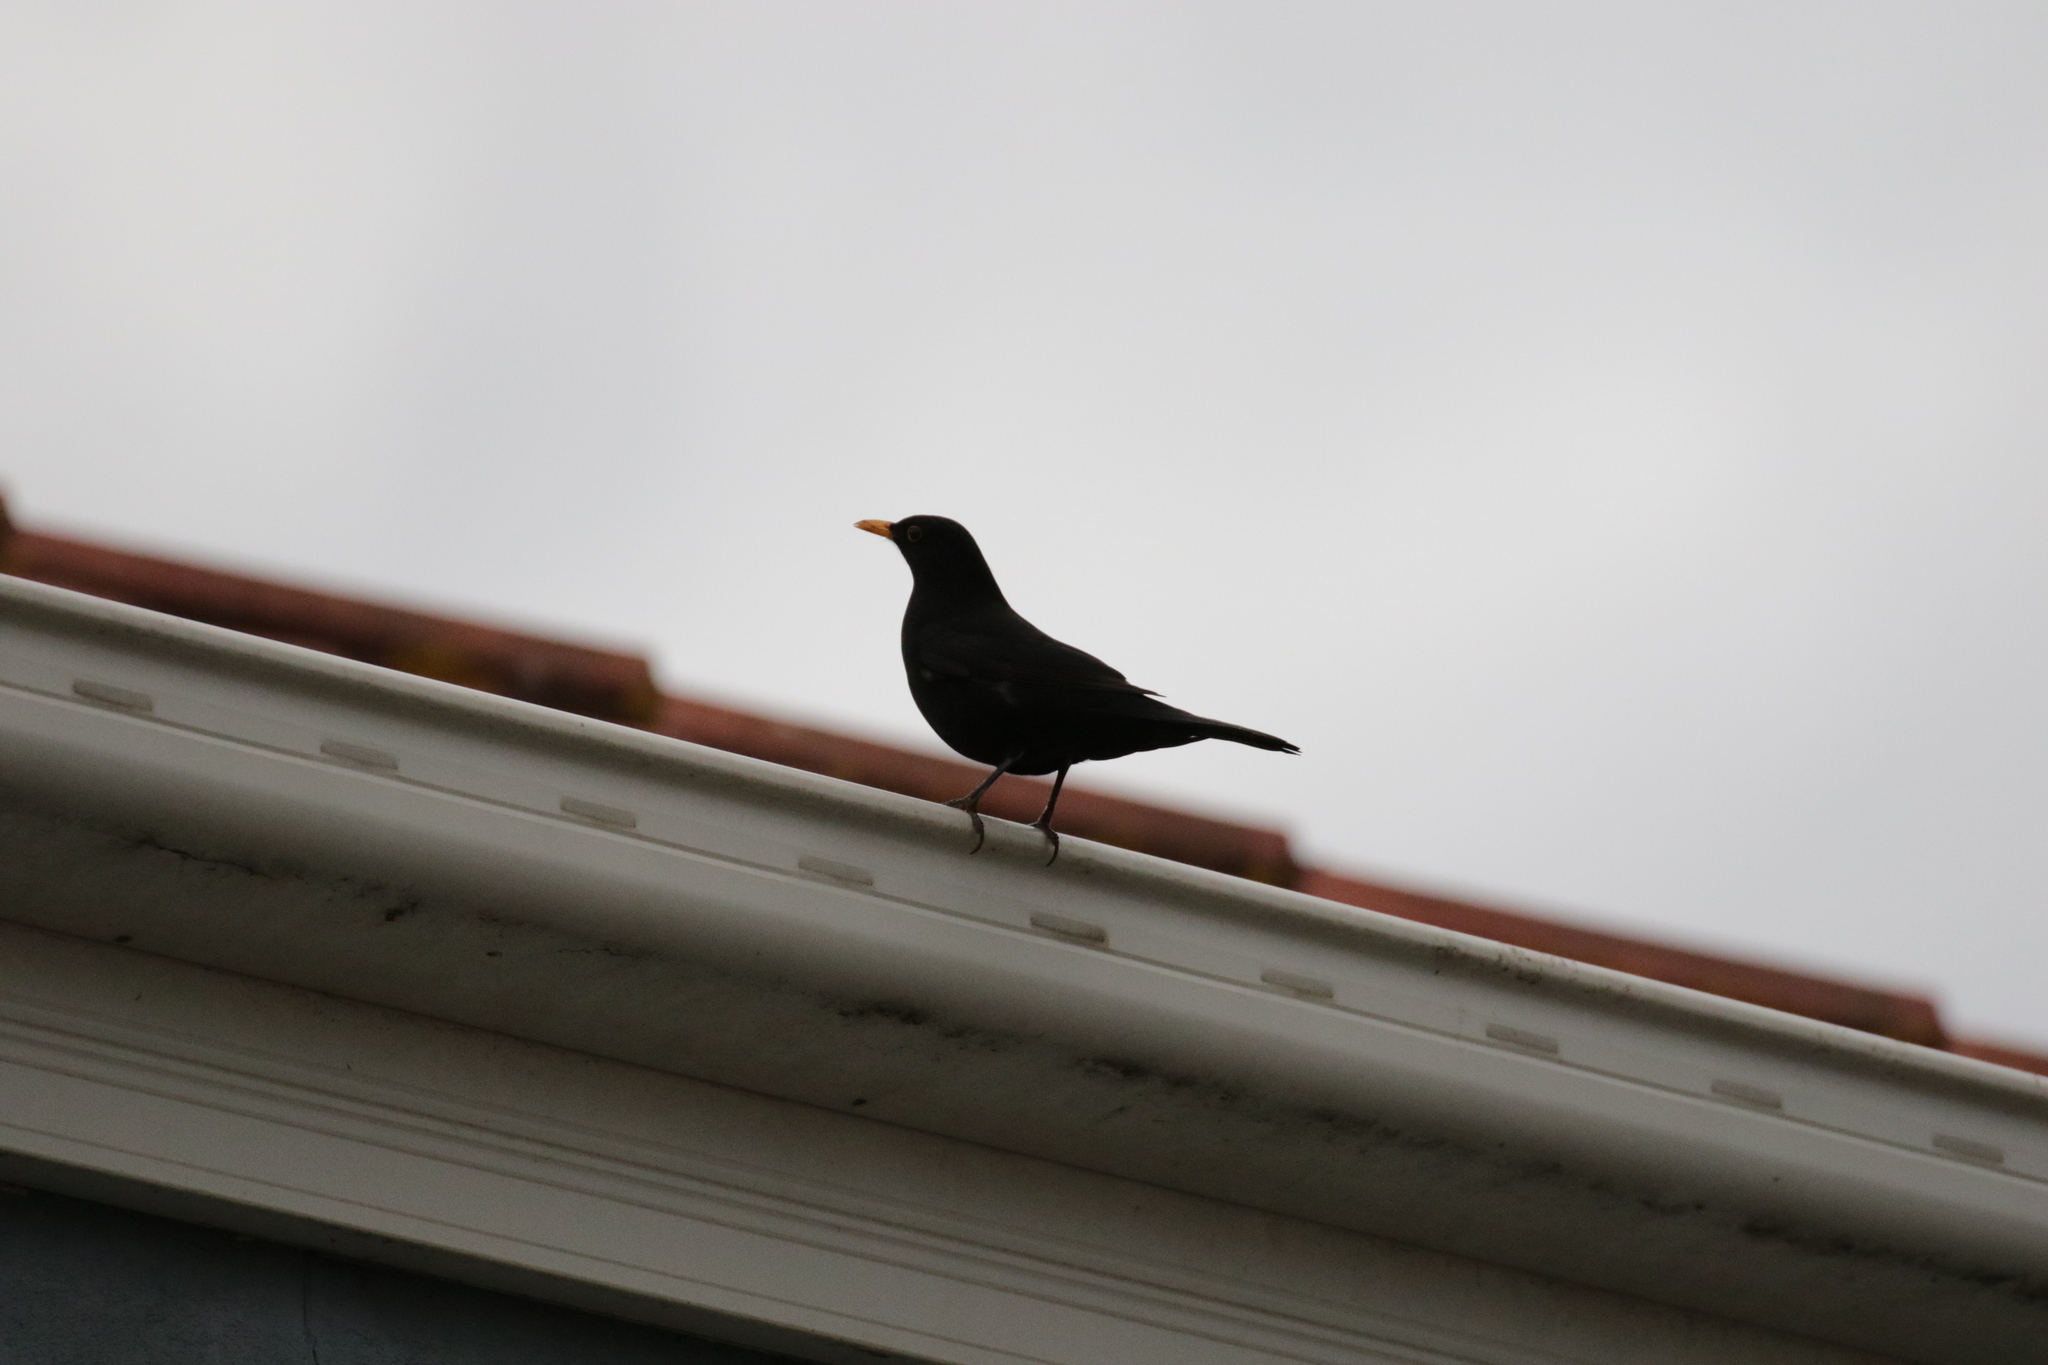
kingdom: Animalia
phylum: Chordata
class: Aves
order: Passeriformes
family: Turdidae
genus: Turdus
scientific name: Turdus merula
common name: Common blackbird
